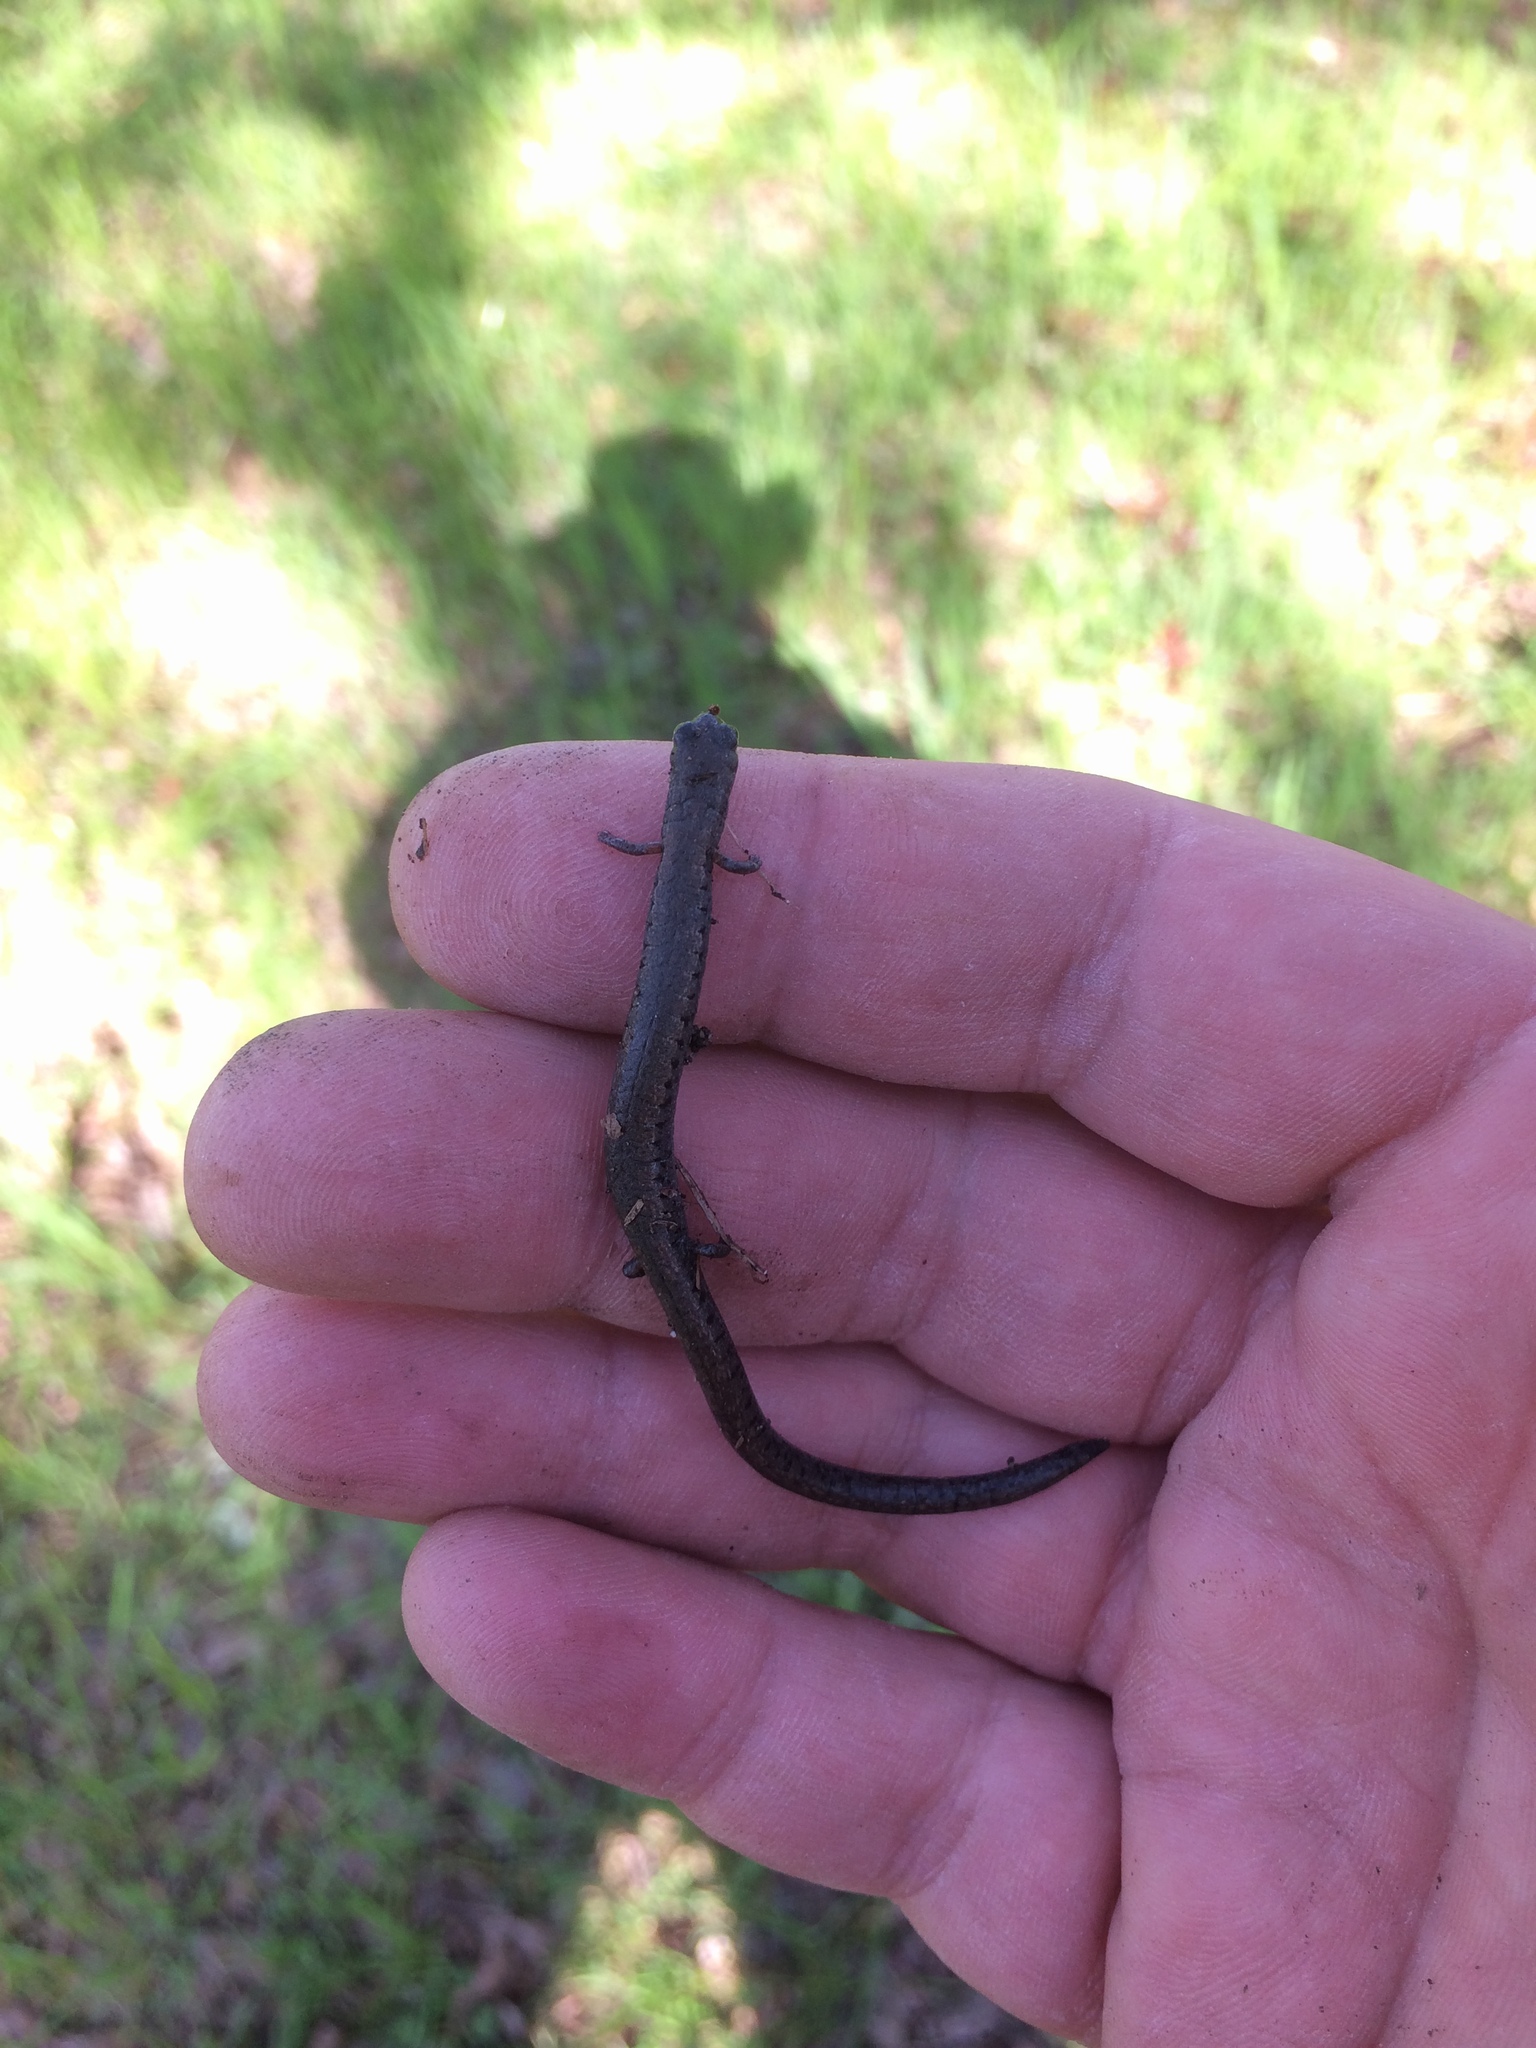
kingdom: Animalia
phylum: Chordata
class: Amphibia
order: Caudata
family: Plethodontidae
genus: Batrachoseps
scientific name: Batrachoseps attenuatus
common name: California slender salamander
